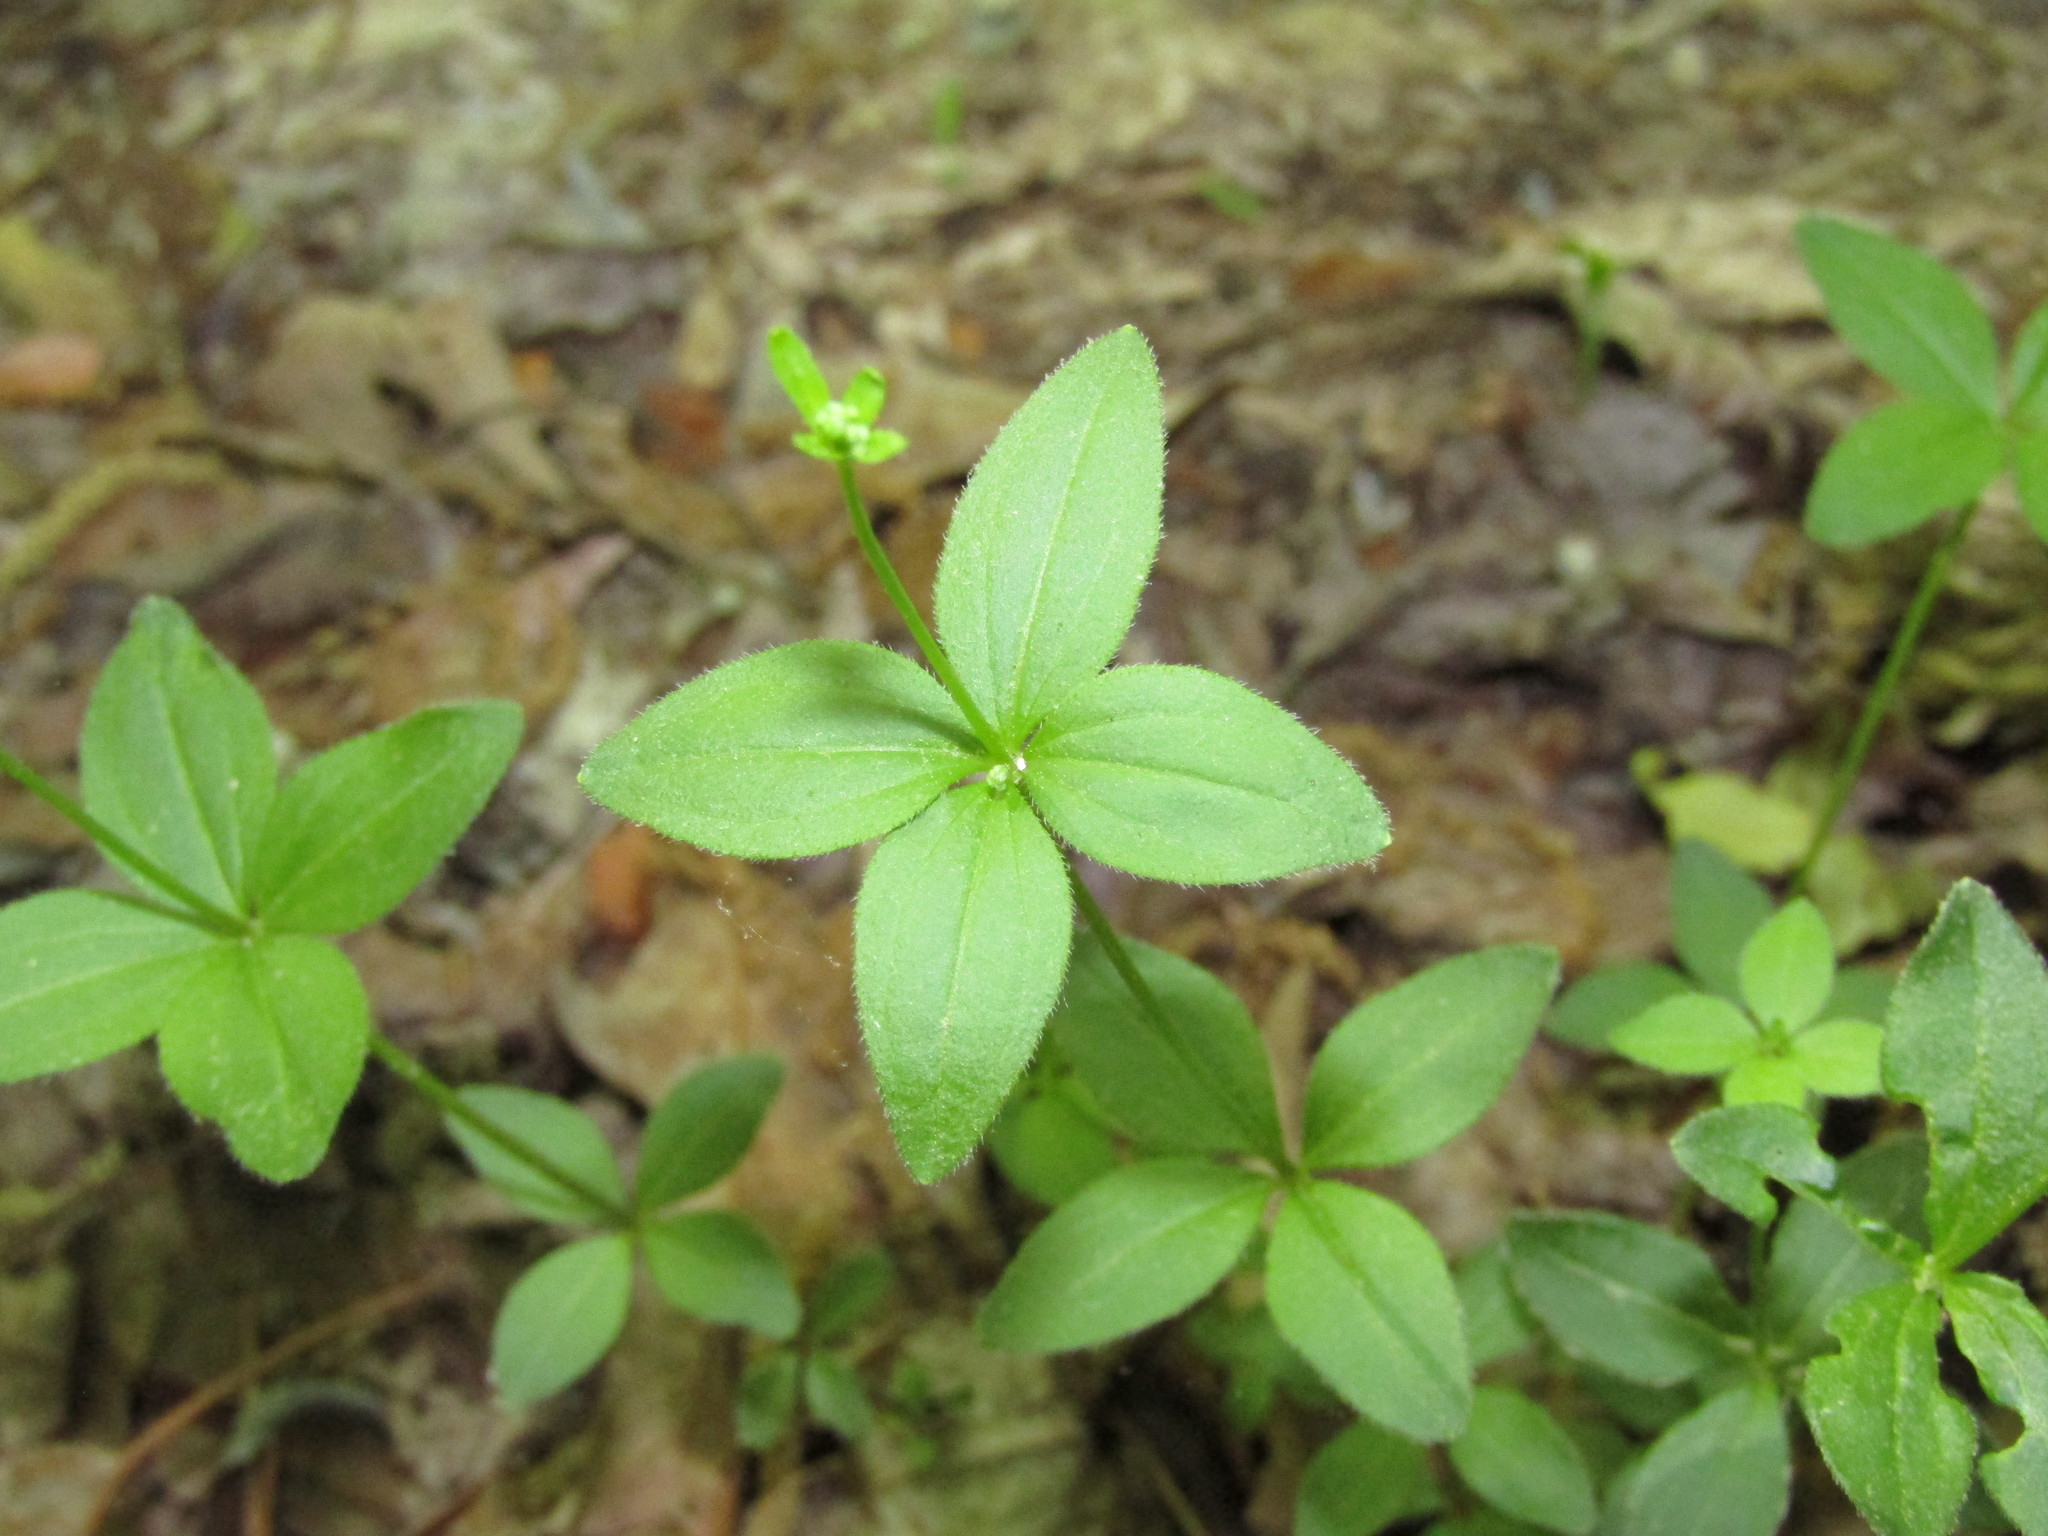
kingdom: Plantae
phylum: Tracheophyta
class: Magnoliopsida
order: Gentianales
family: Rubiaceae
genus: Galium
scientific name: Galium circaezans
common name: Forest bedstraw
